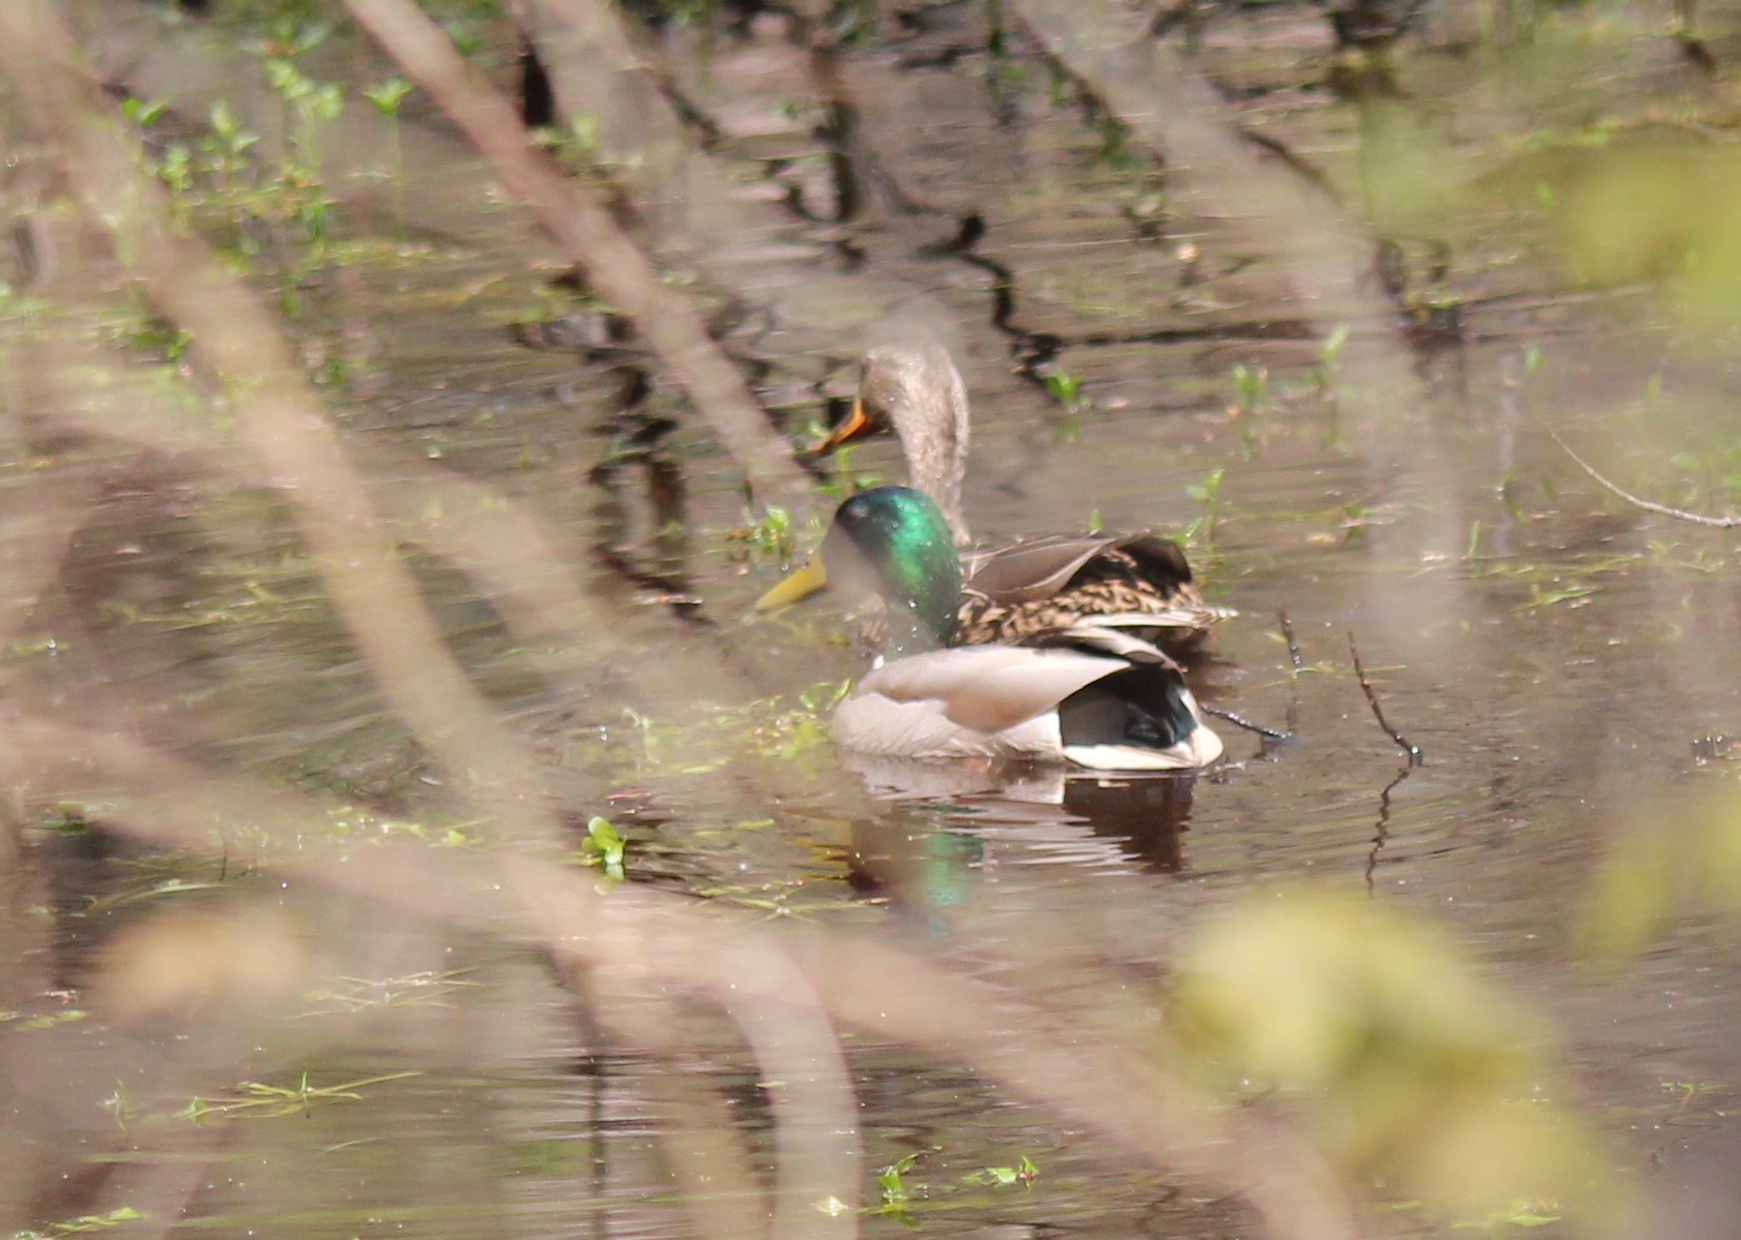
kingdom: Animalia
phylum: Chordata
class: Aves
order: Anseriformes
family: Anatidae
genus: Anas
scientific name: Anas platyrhynchos
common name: Mallard
